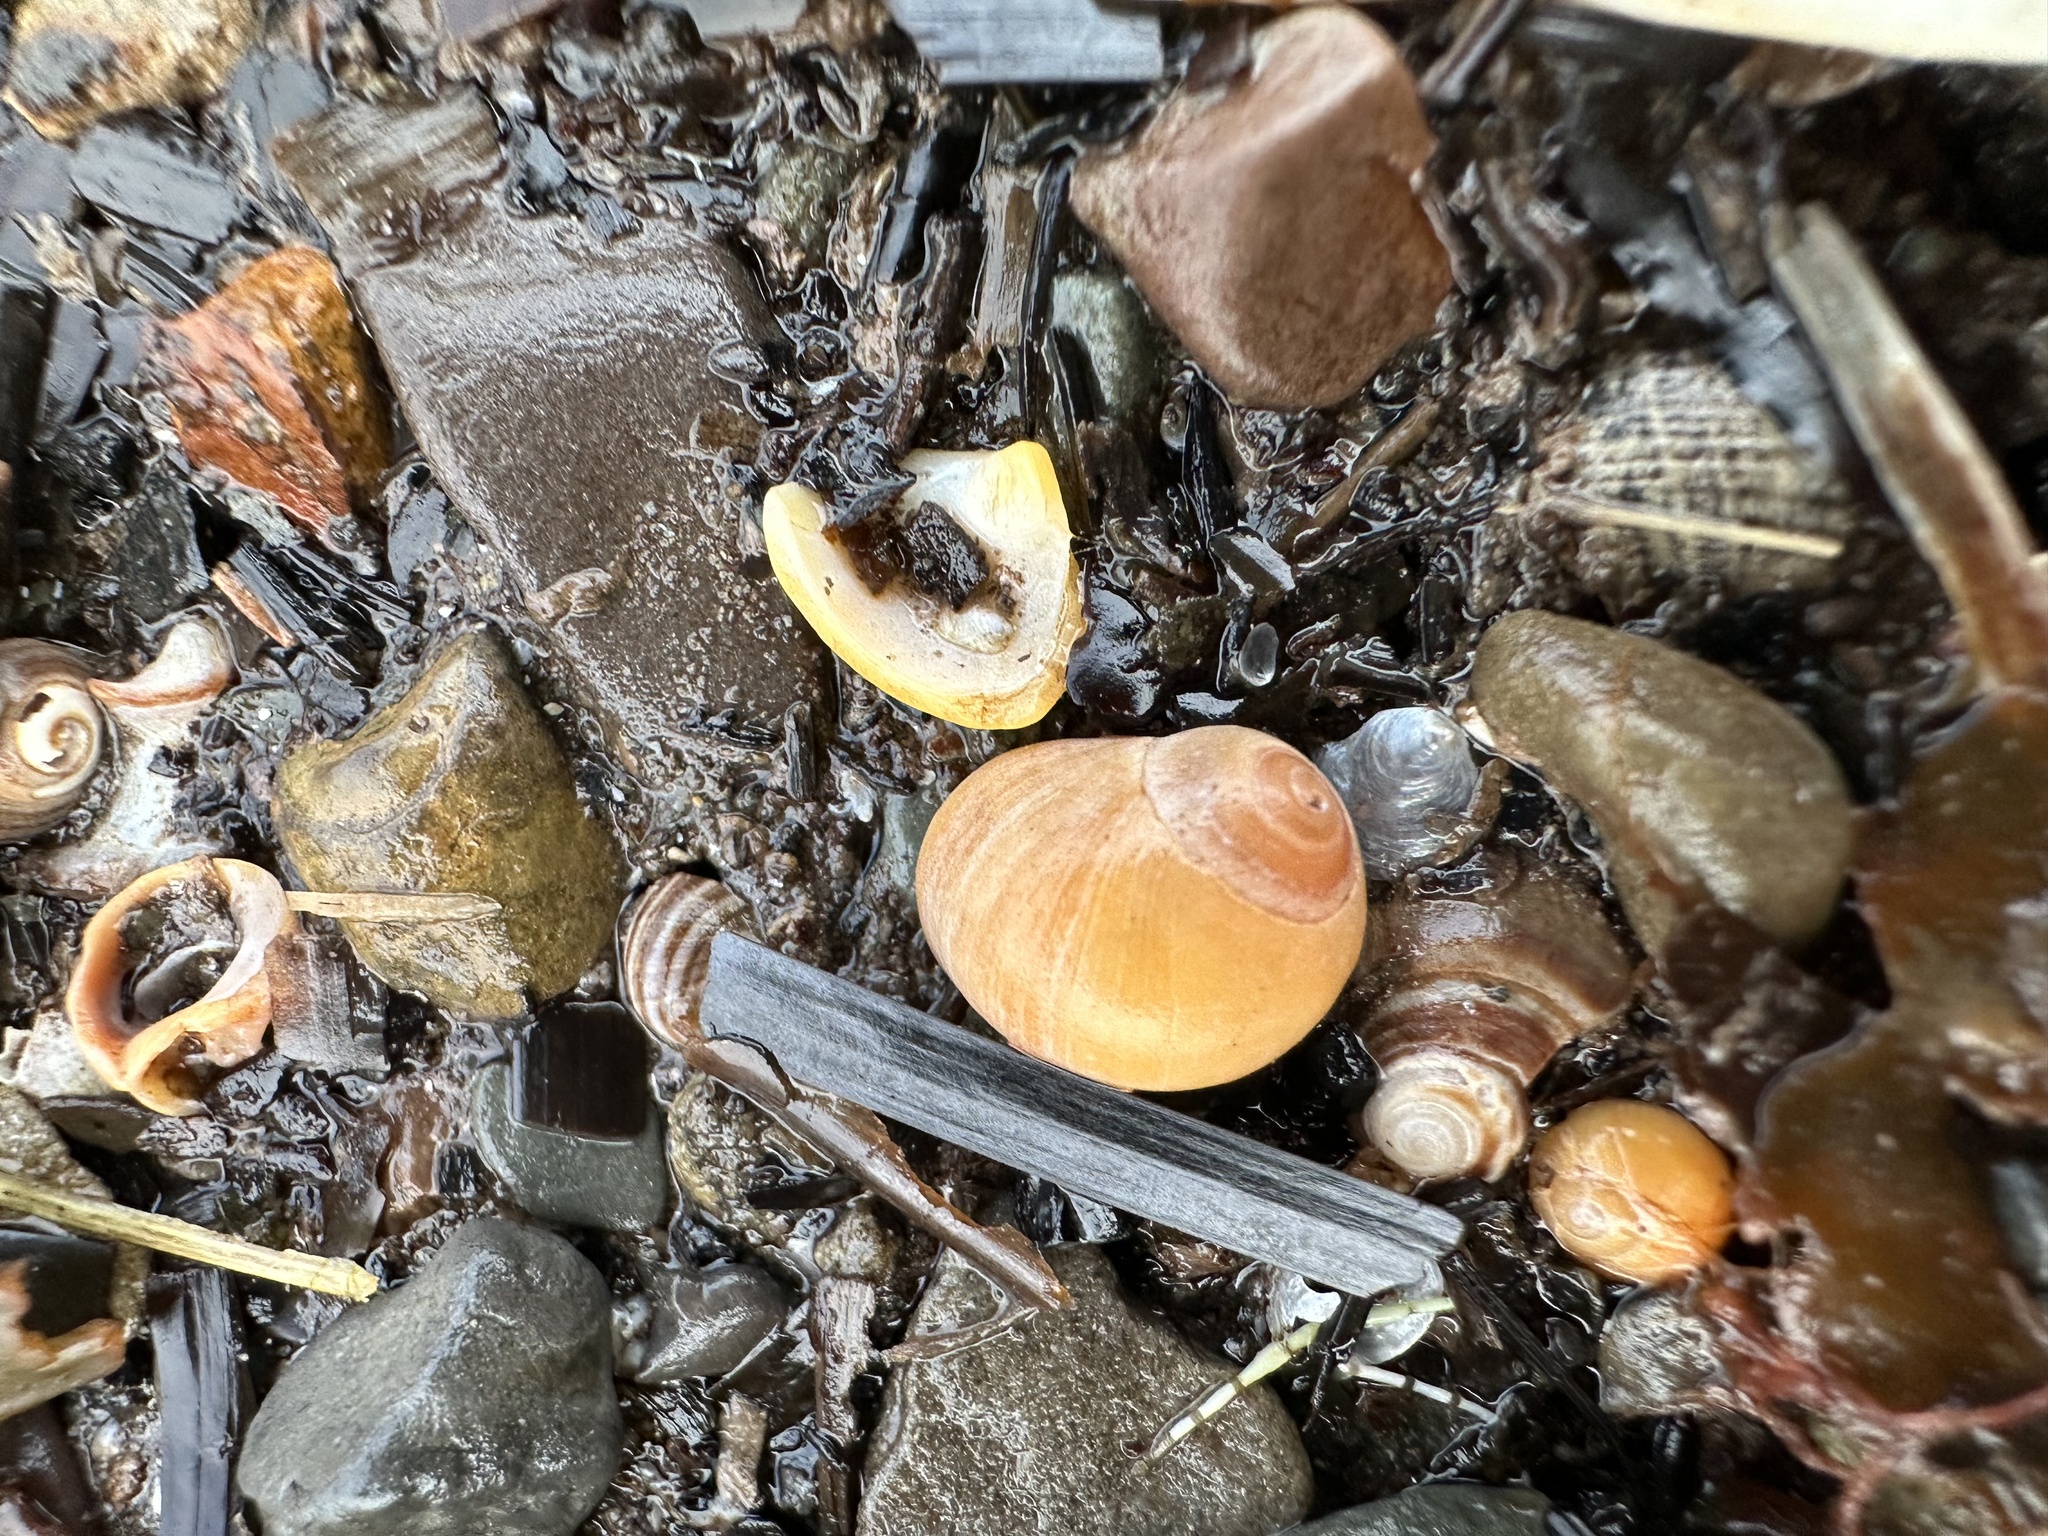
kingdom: Animalia
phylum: Mollusca
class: Gastropoda
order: Littorinimorpha
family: Littorinidae
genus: Littorina
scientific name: Littorina obtusata
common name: Flat periwinkle
